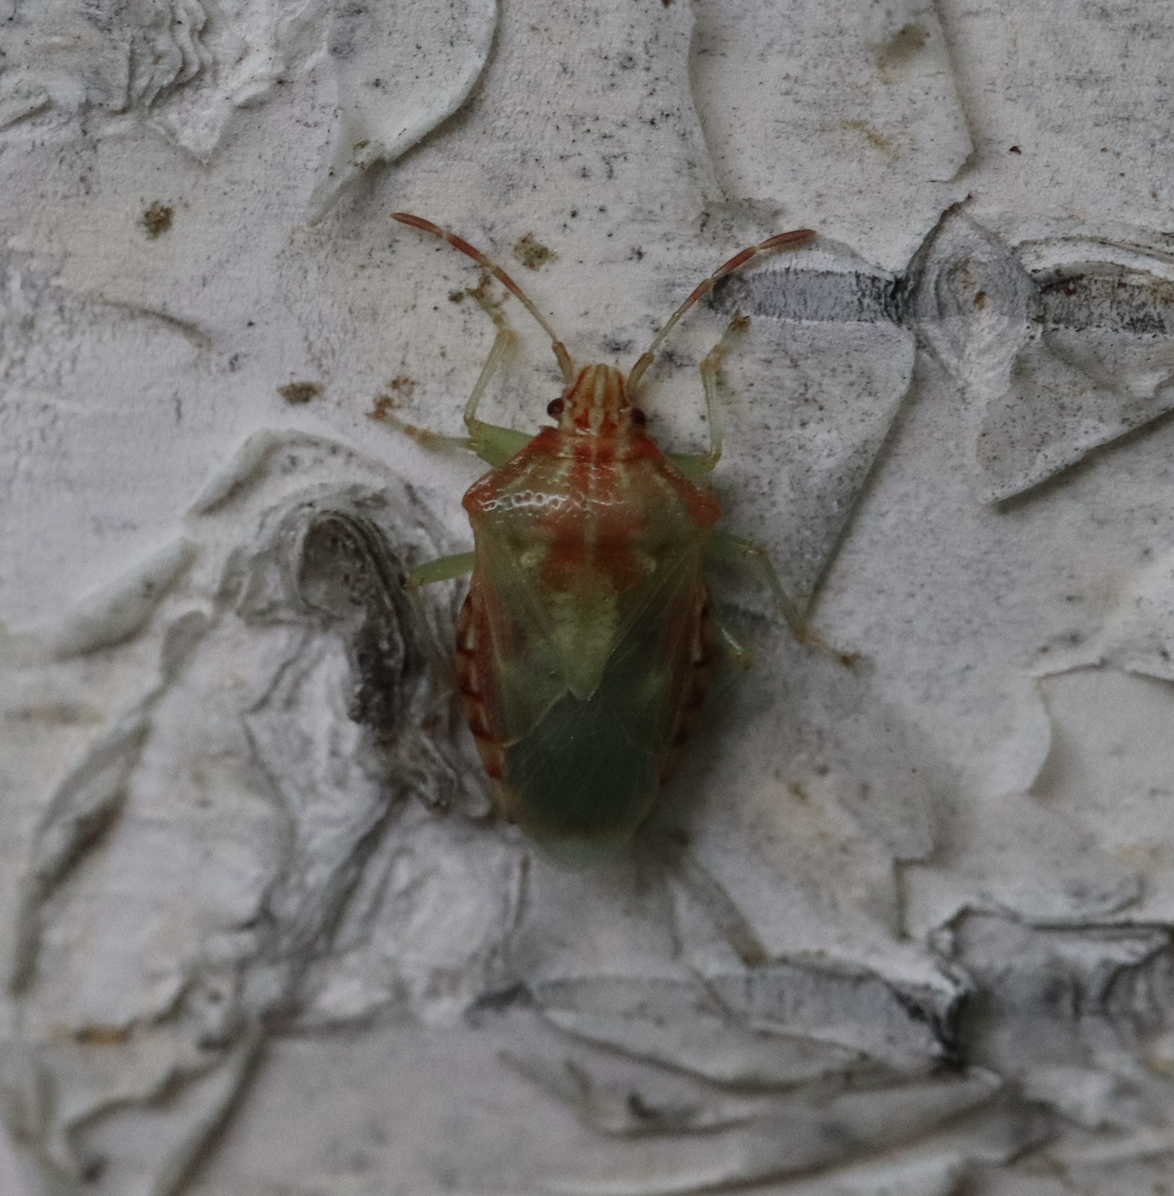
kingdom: Animalia
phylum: Arthropoda
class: Insecta
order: Hemiptera
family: Acanthosomatidae
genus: Elasmucha
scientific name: Elasmucha lateralis
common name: Shield bug
